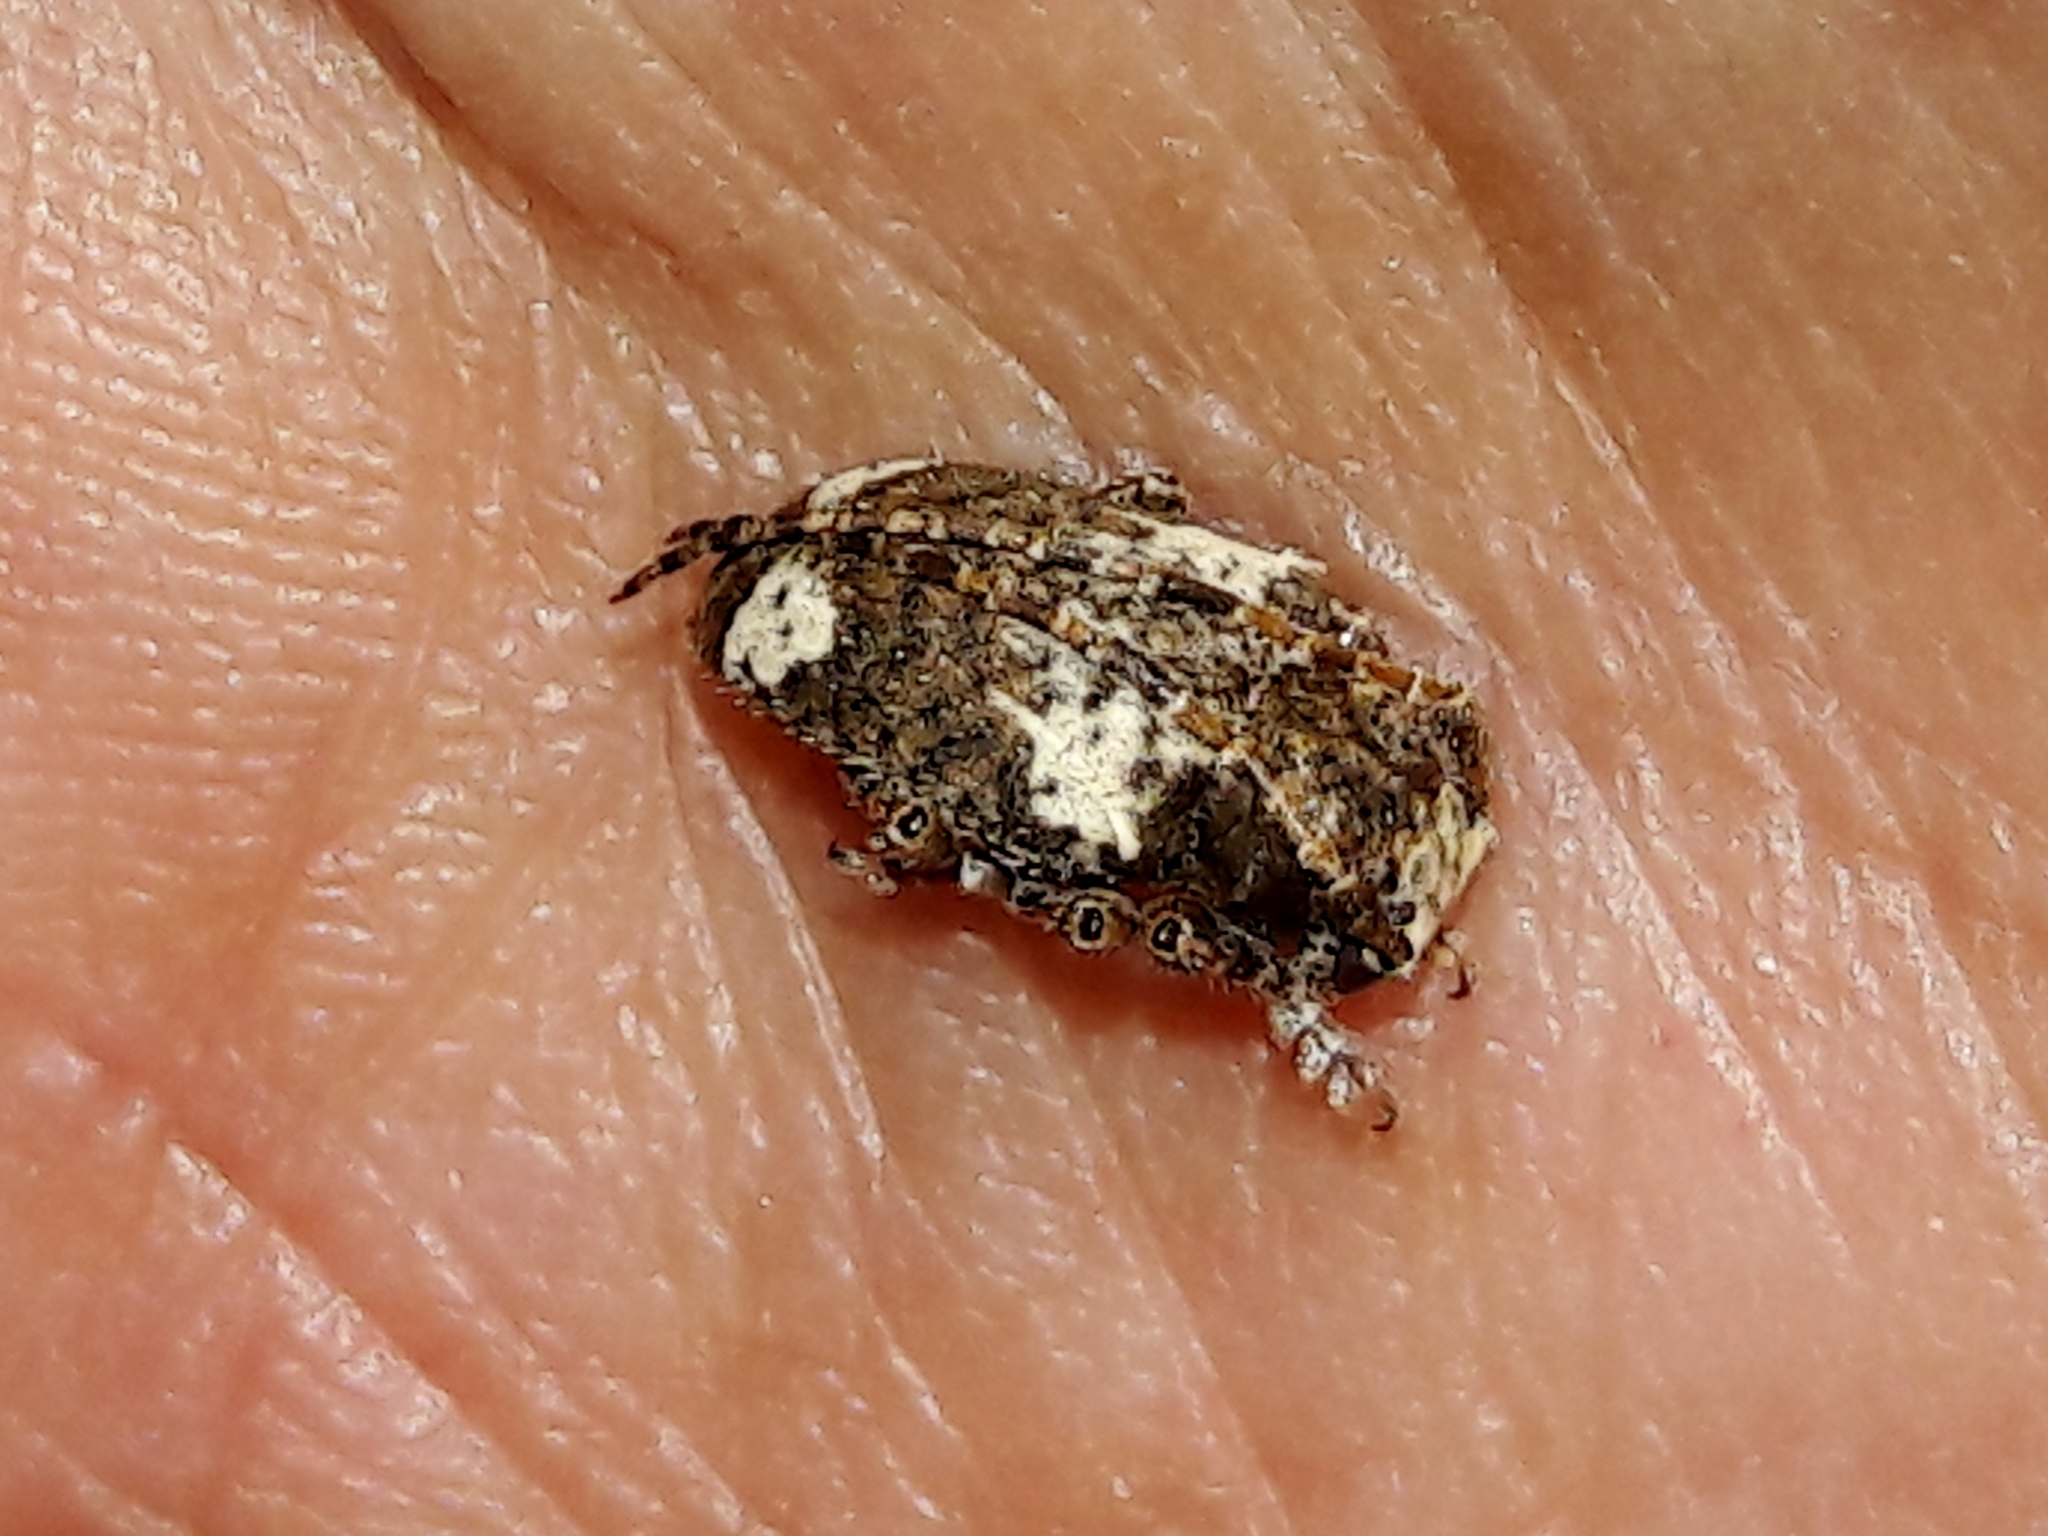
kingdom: Animalia
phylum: Arthropoda
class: Insecta
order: Coleoptera
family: Cerambycidae
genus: Aerenea
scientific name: Aerenea quadriplagiata
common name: Amaranth stem borer
